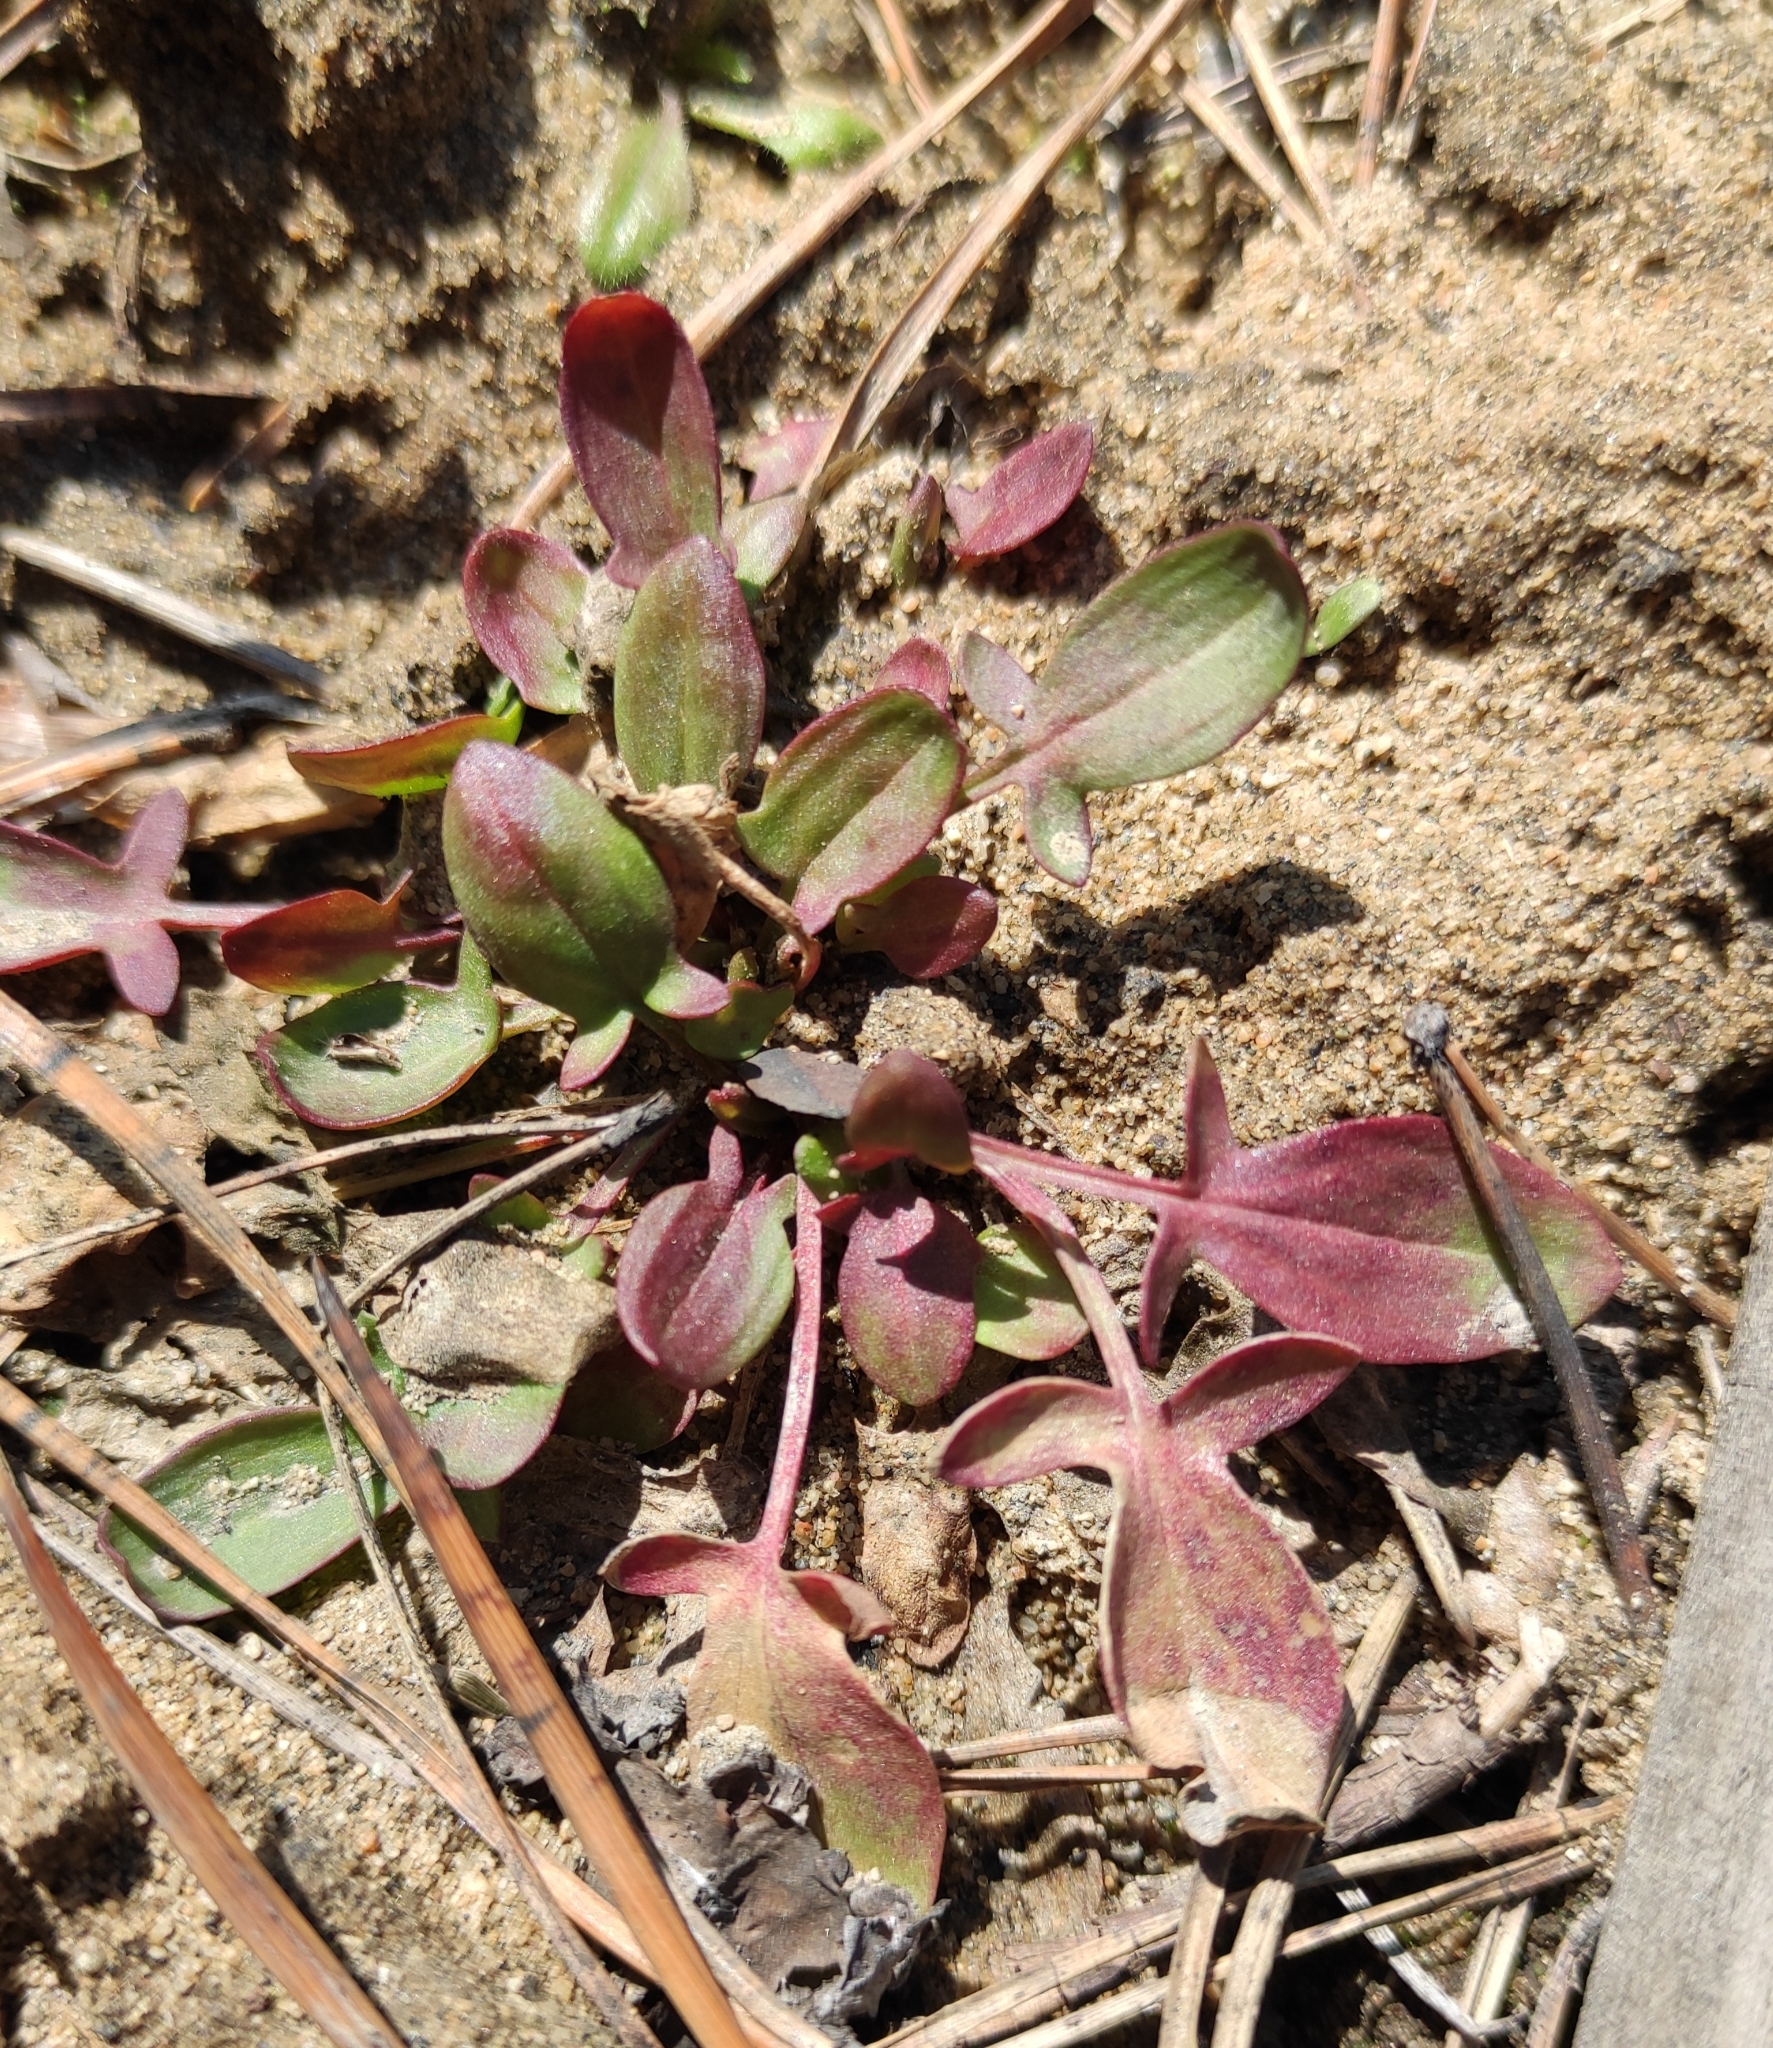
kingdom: Plantae
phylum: Tracheophyta
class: Magnoliopsida
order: Caryophyllales
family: Polygonaceae
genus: Rumex
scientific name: Rumex acetosella
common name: Common sheep sorrel
